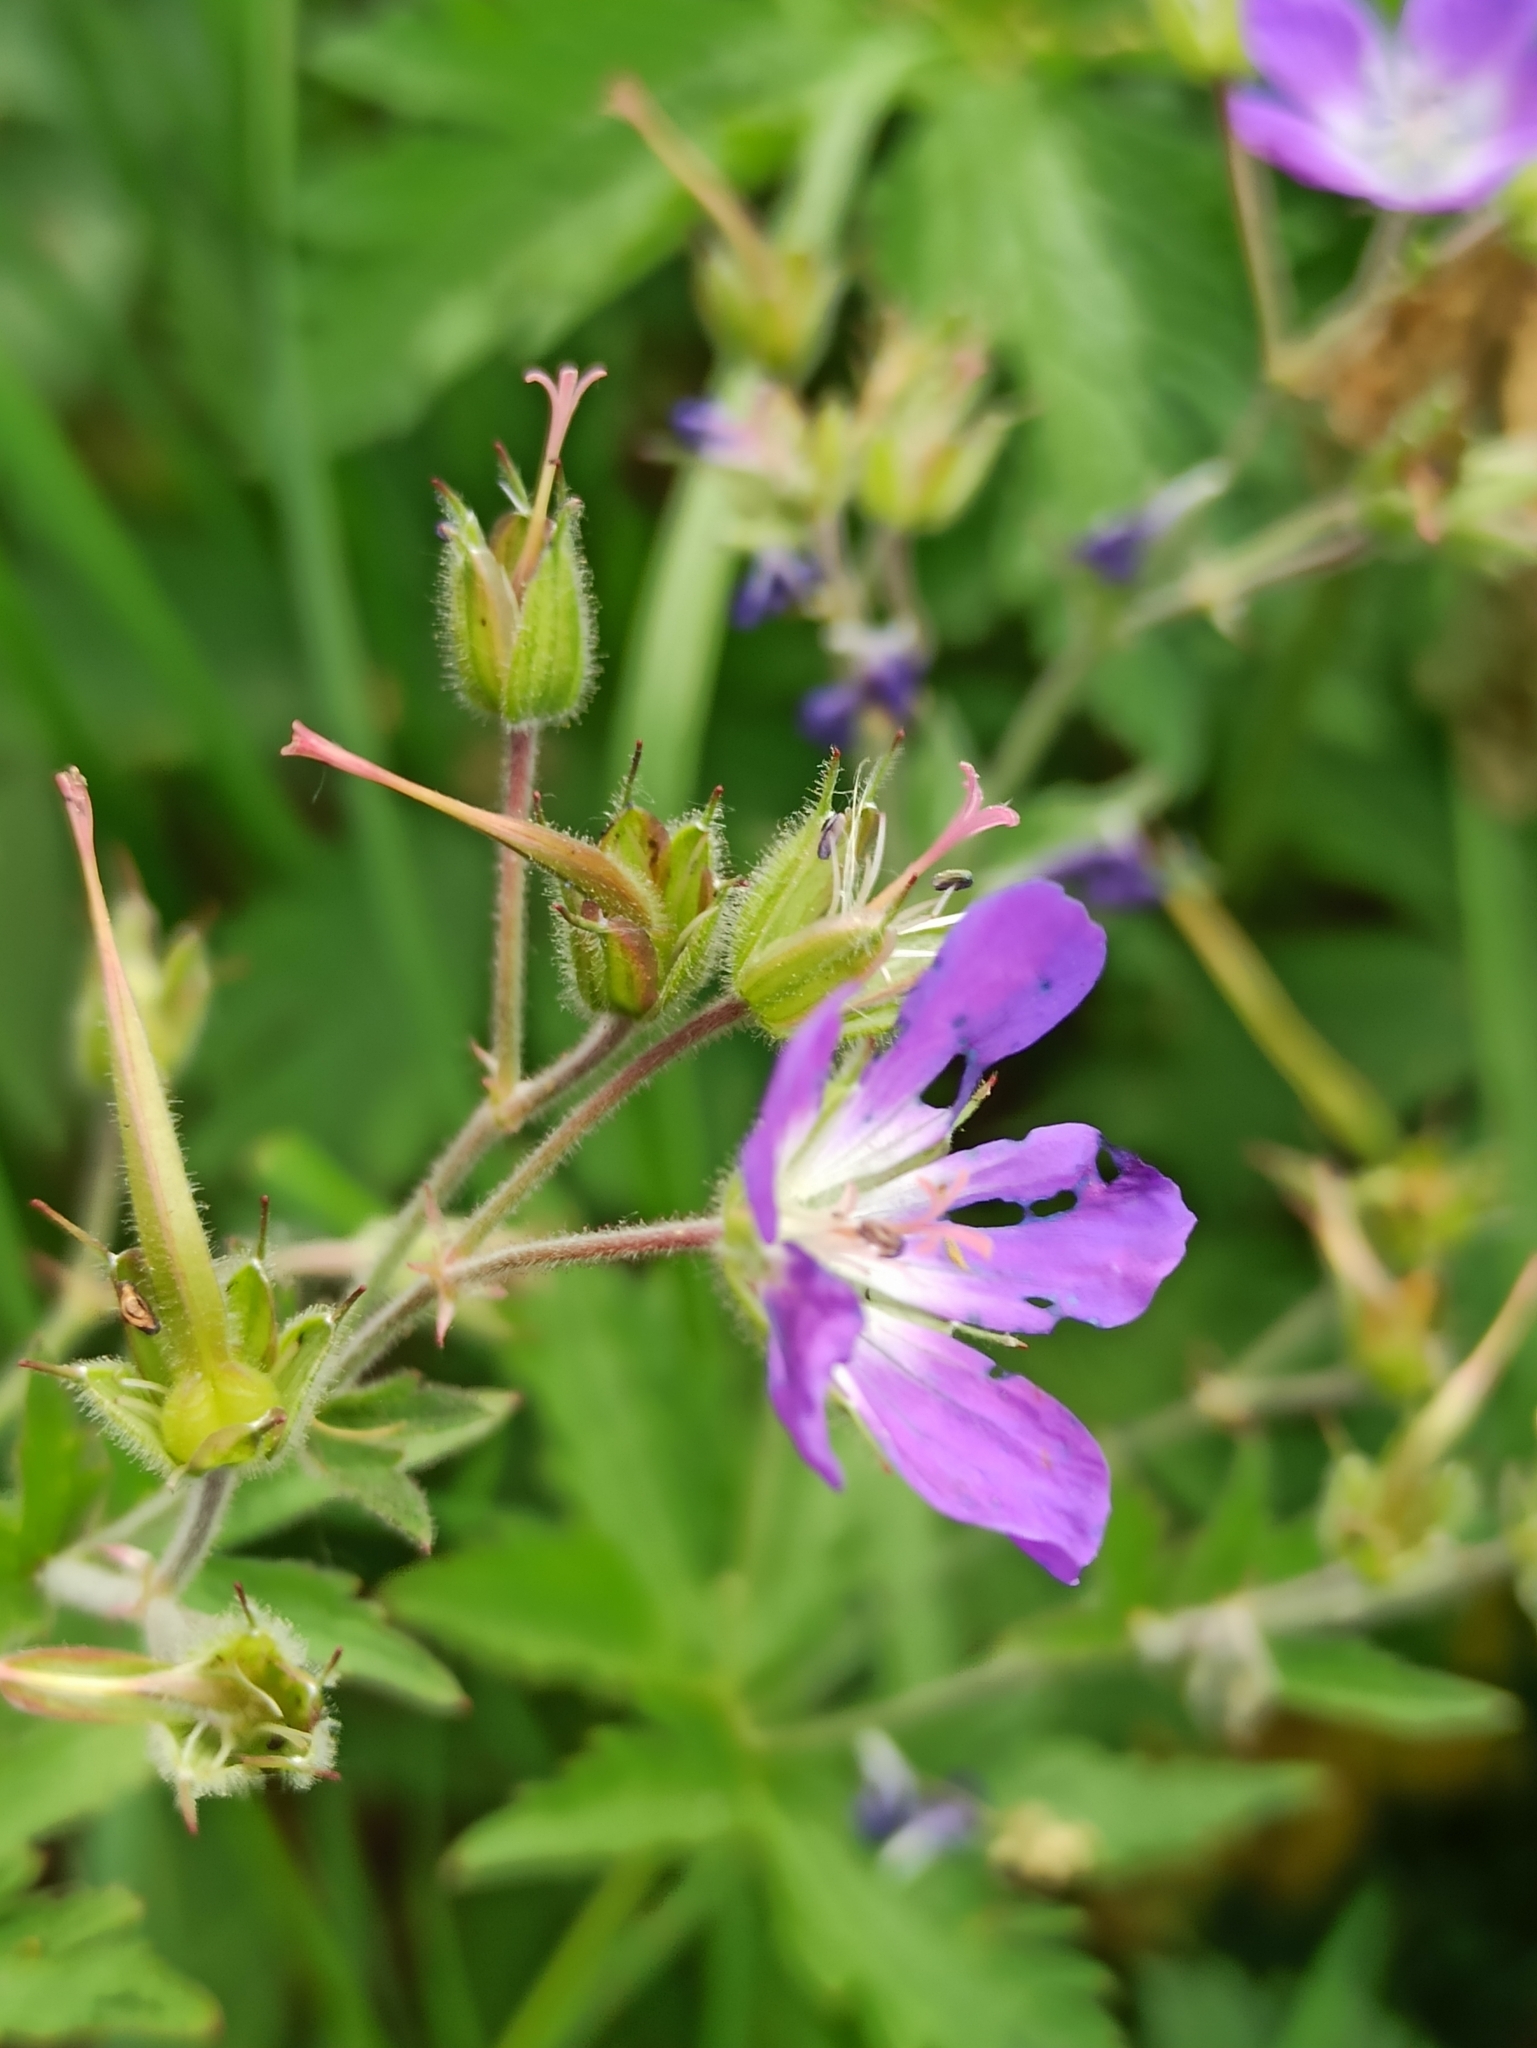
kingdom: Plantae
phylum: Tracheophyta
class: Magnoliopsida
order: Geraniales
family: Geraniaceae
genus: Geranium
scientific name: Geranium sylvaticum
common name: Wood crane's-bill
